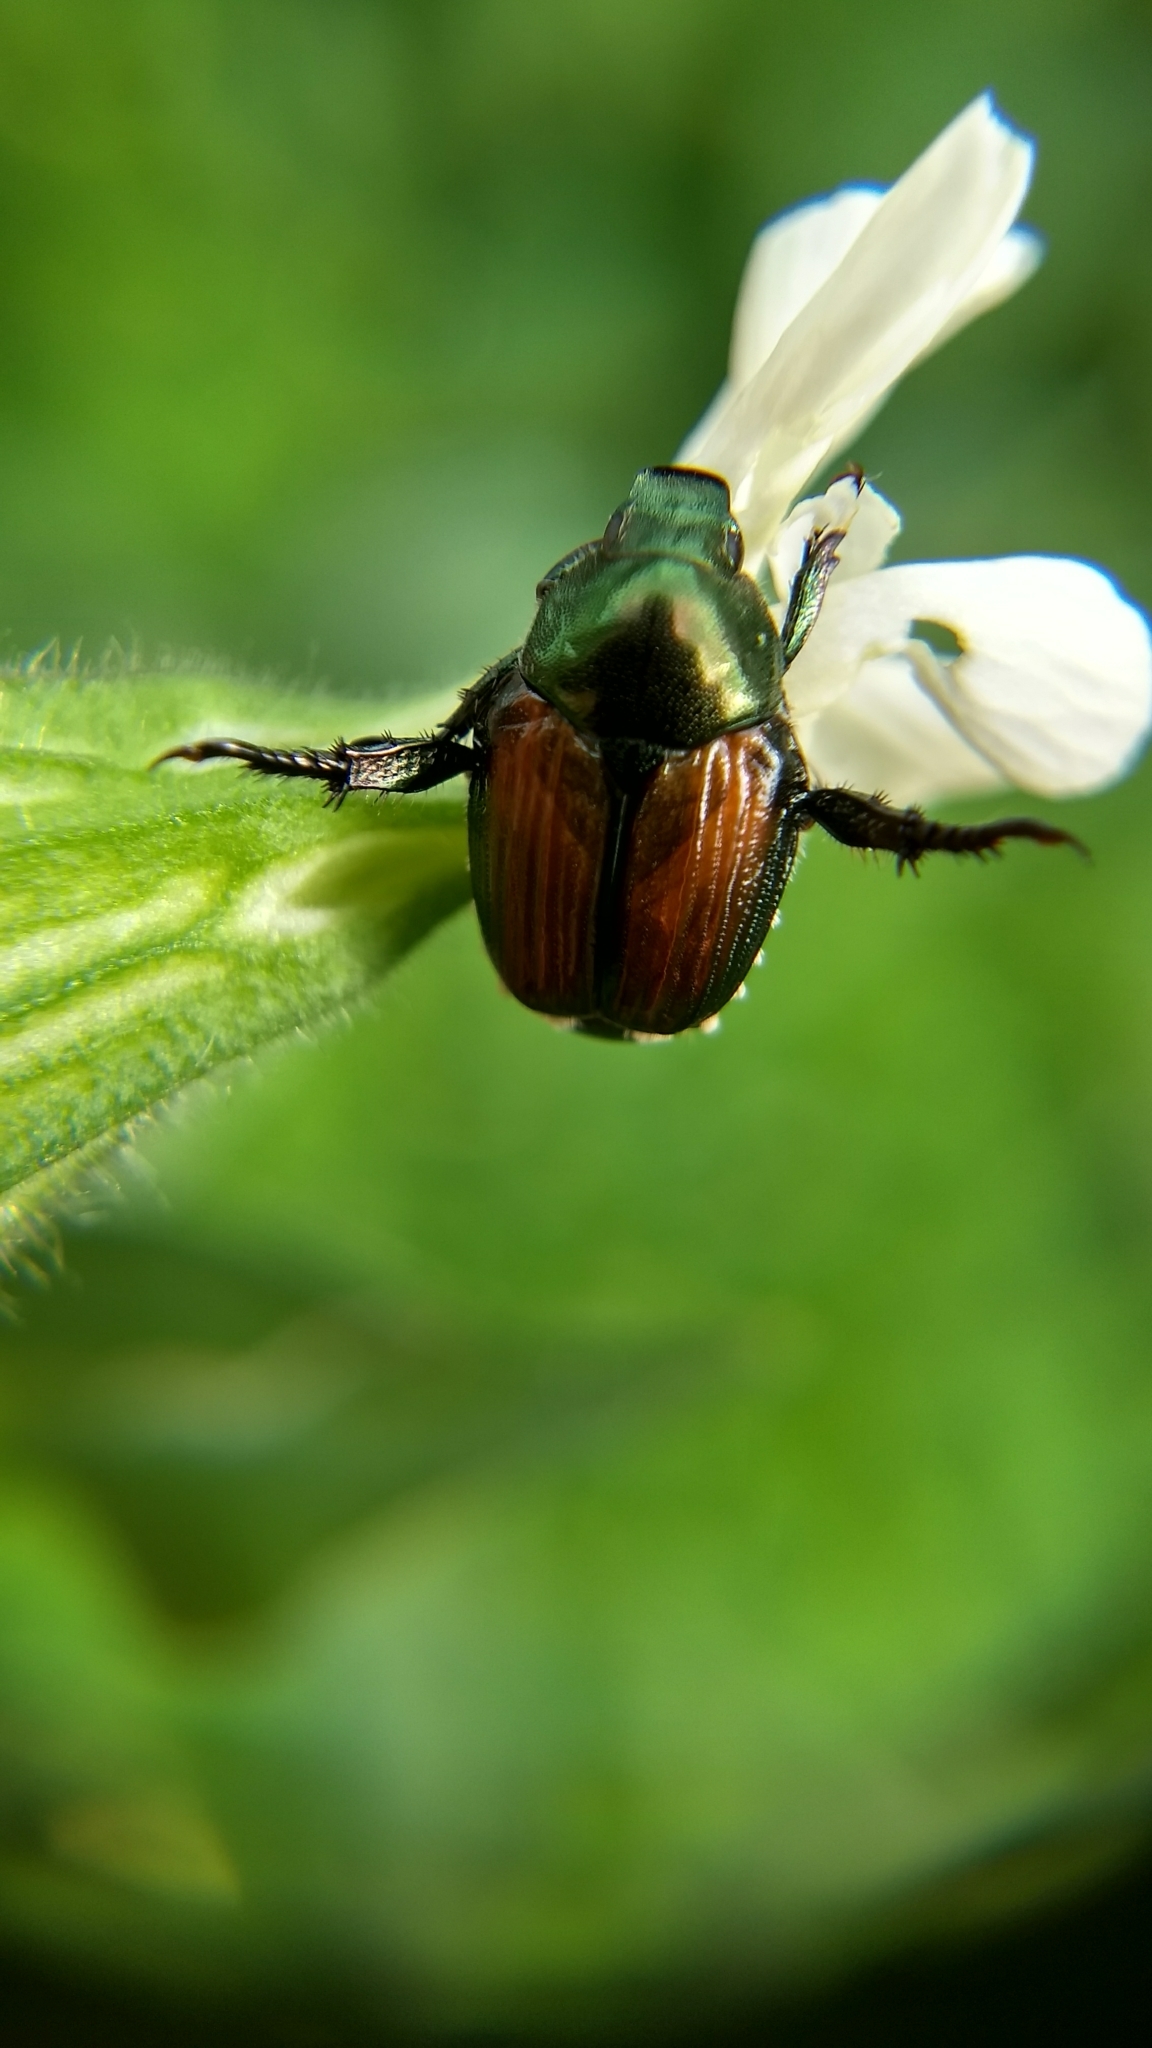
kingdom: Animalia
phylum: Arthropoda
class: Insecta
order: Coleoptera
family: Scarabaeidae
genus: Popillia
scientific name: Popillia japonica
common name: Japanese beetle
